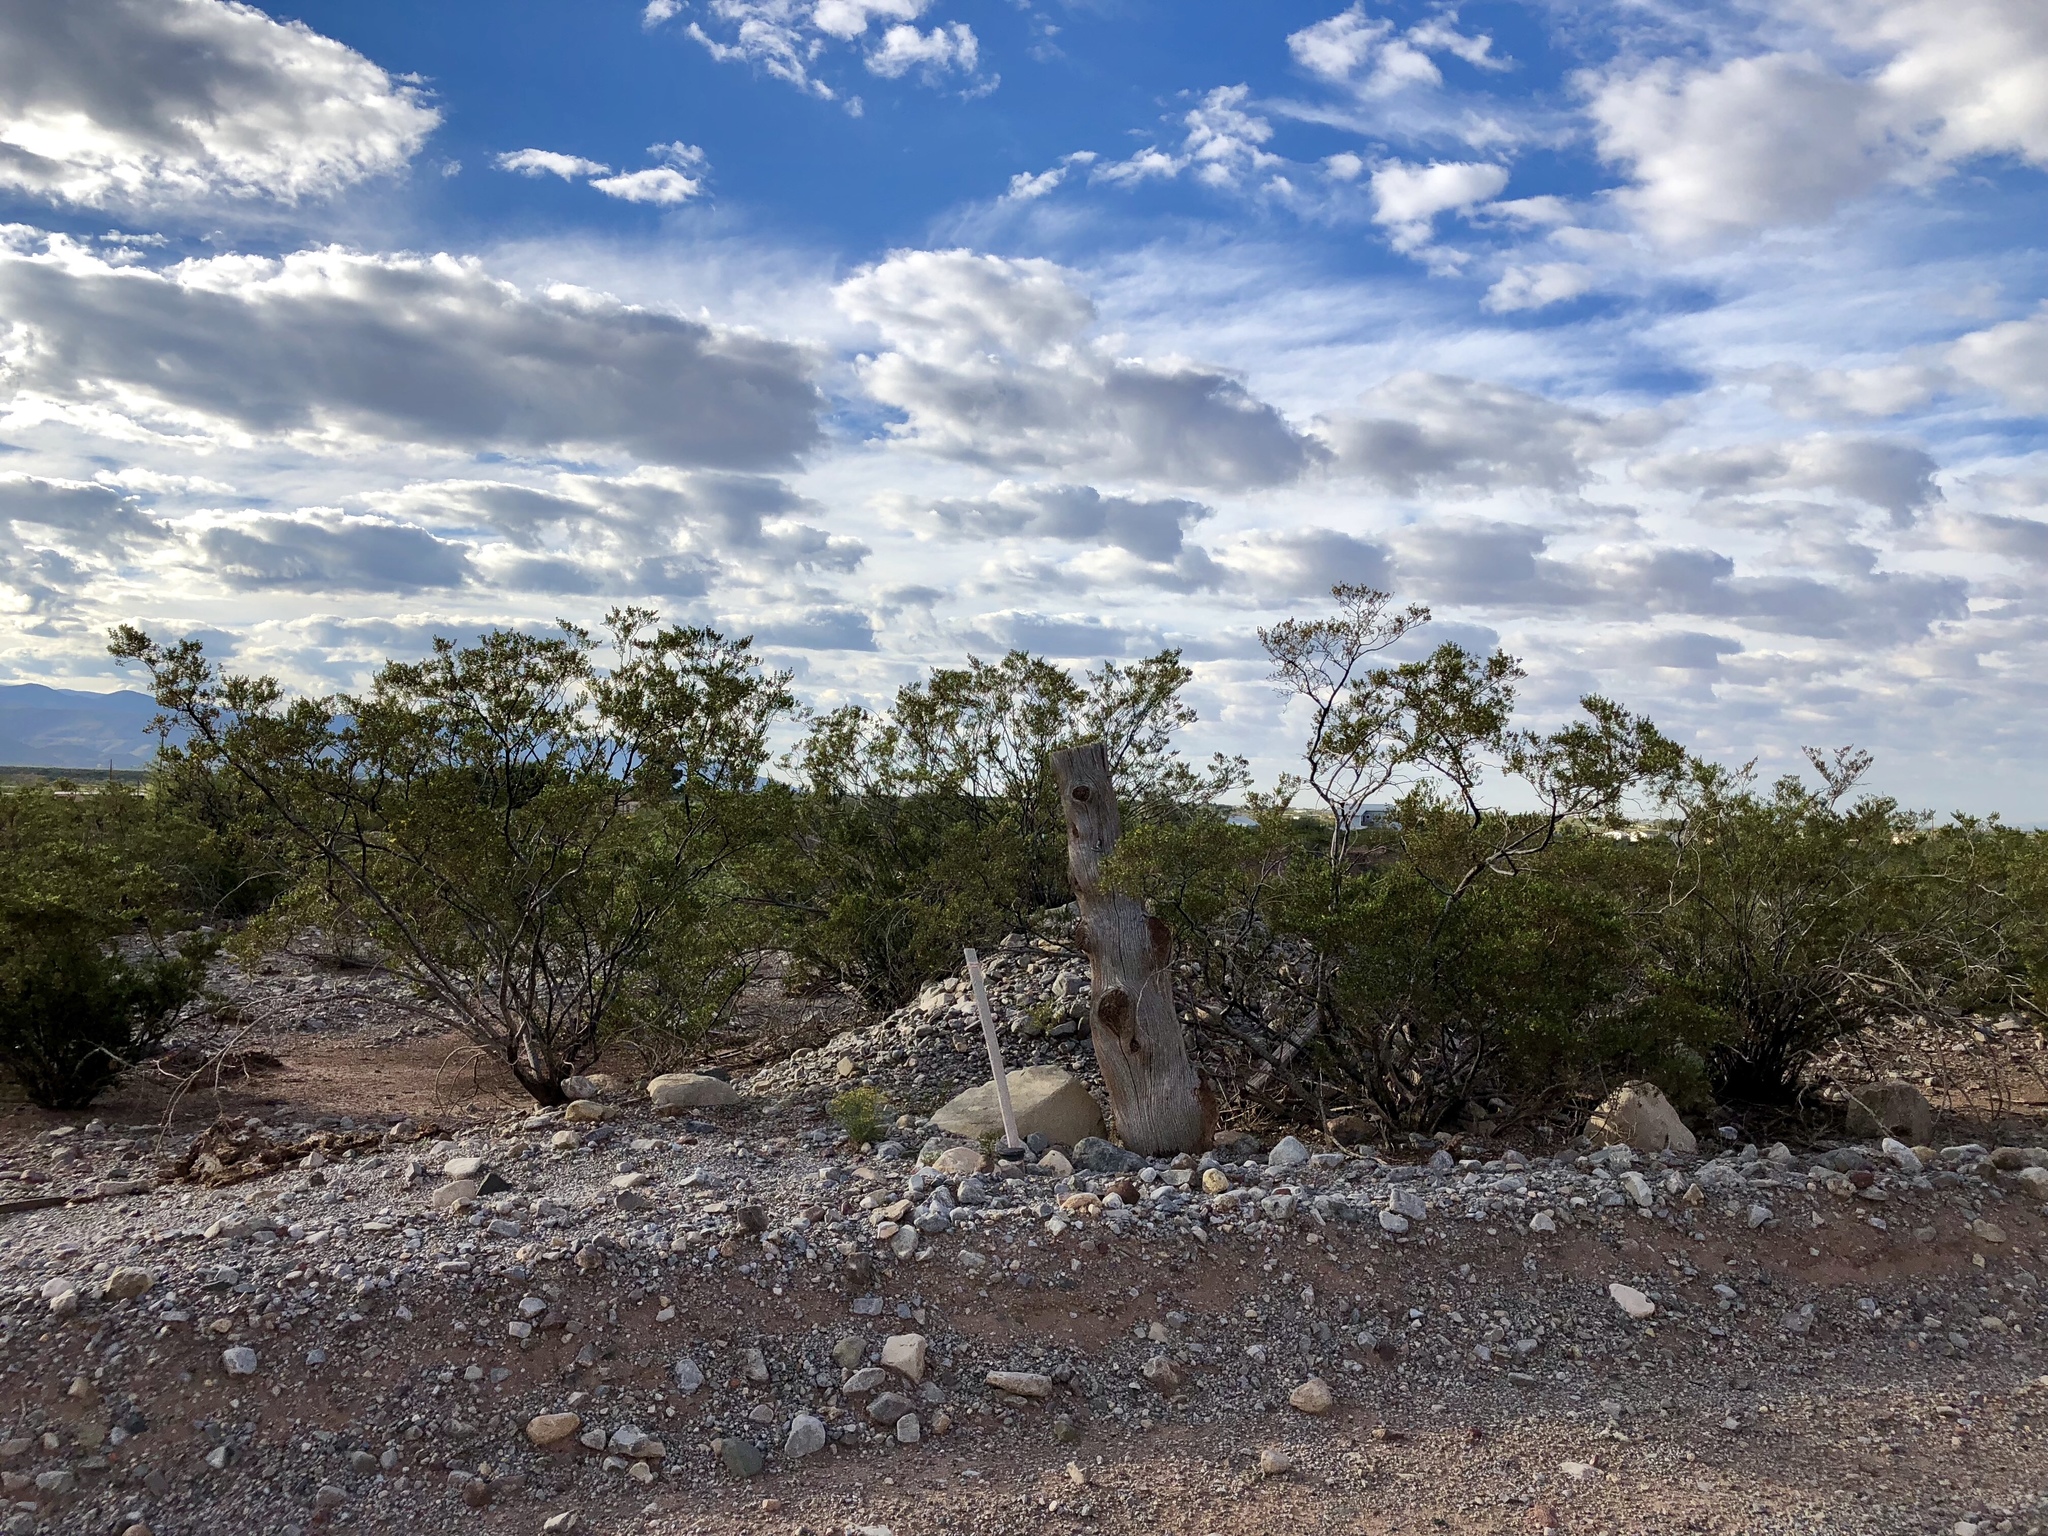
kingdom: Plantae
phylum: Tracheophyta
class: Magnoliopsida
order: Zygophyllales
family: Zygophyllaceae
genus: Larrea
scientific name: Larrea tridentata
